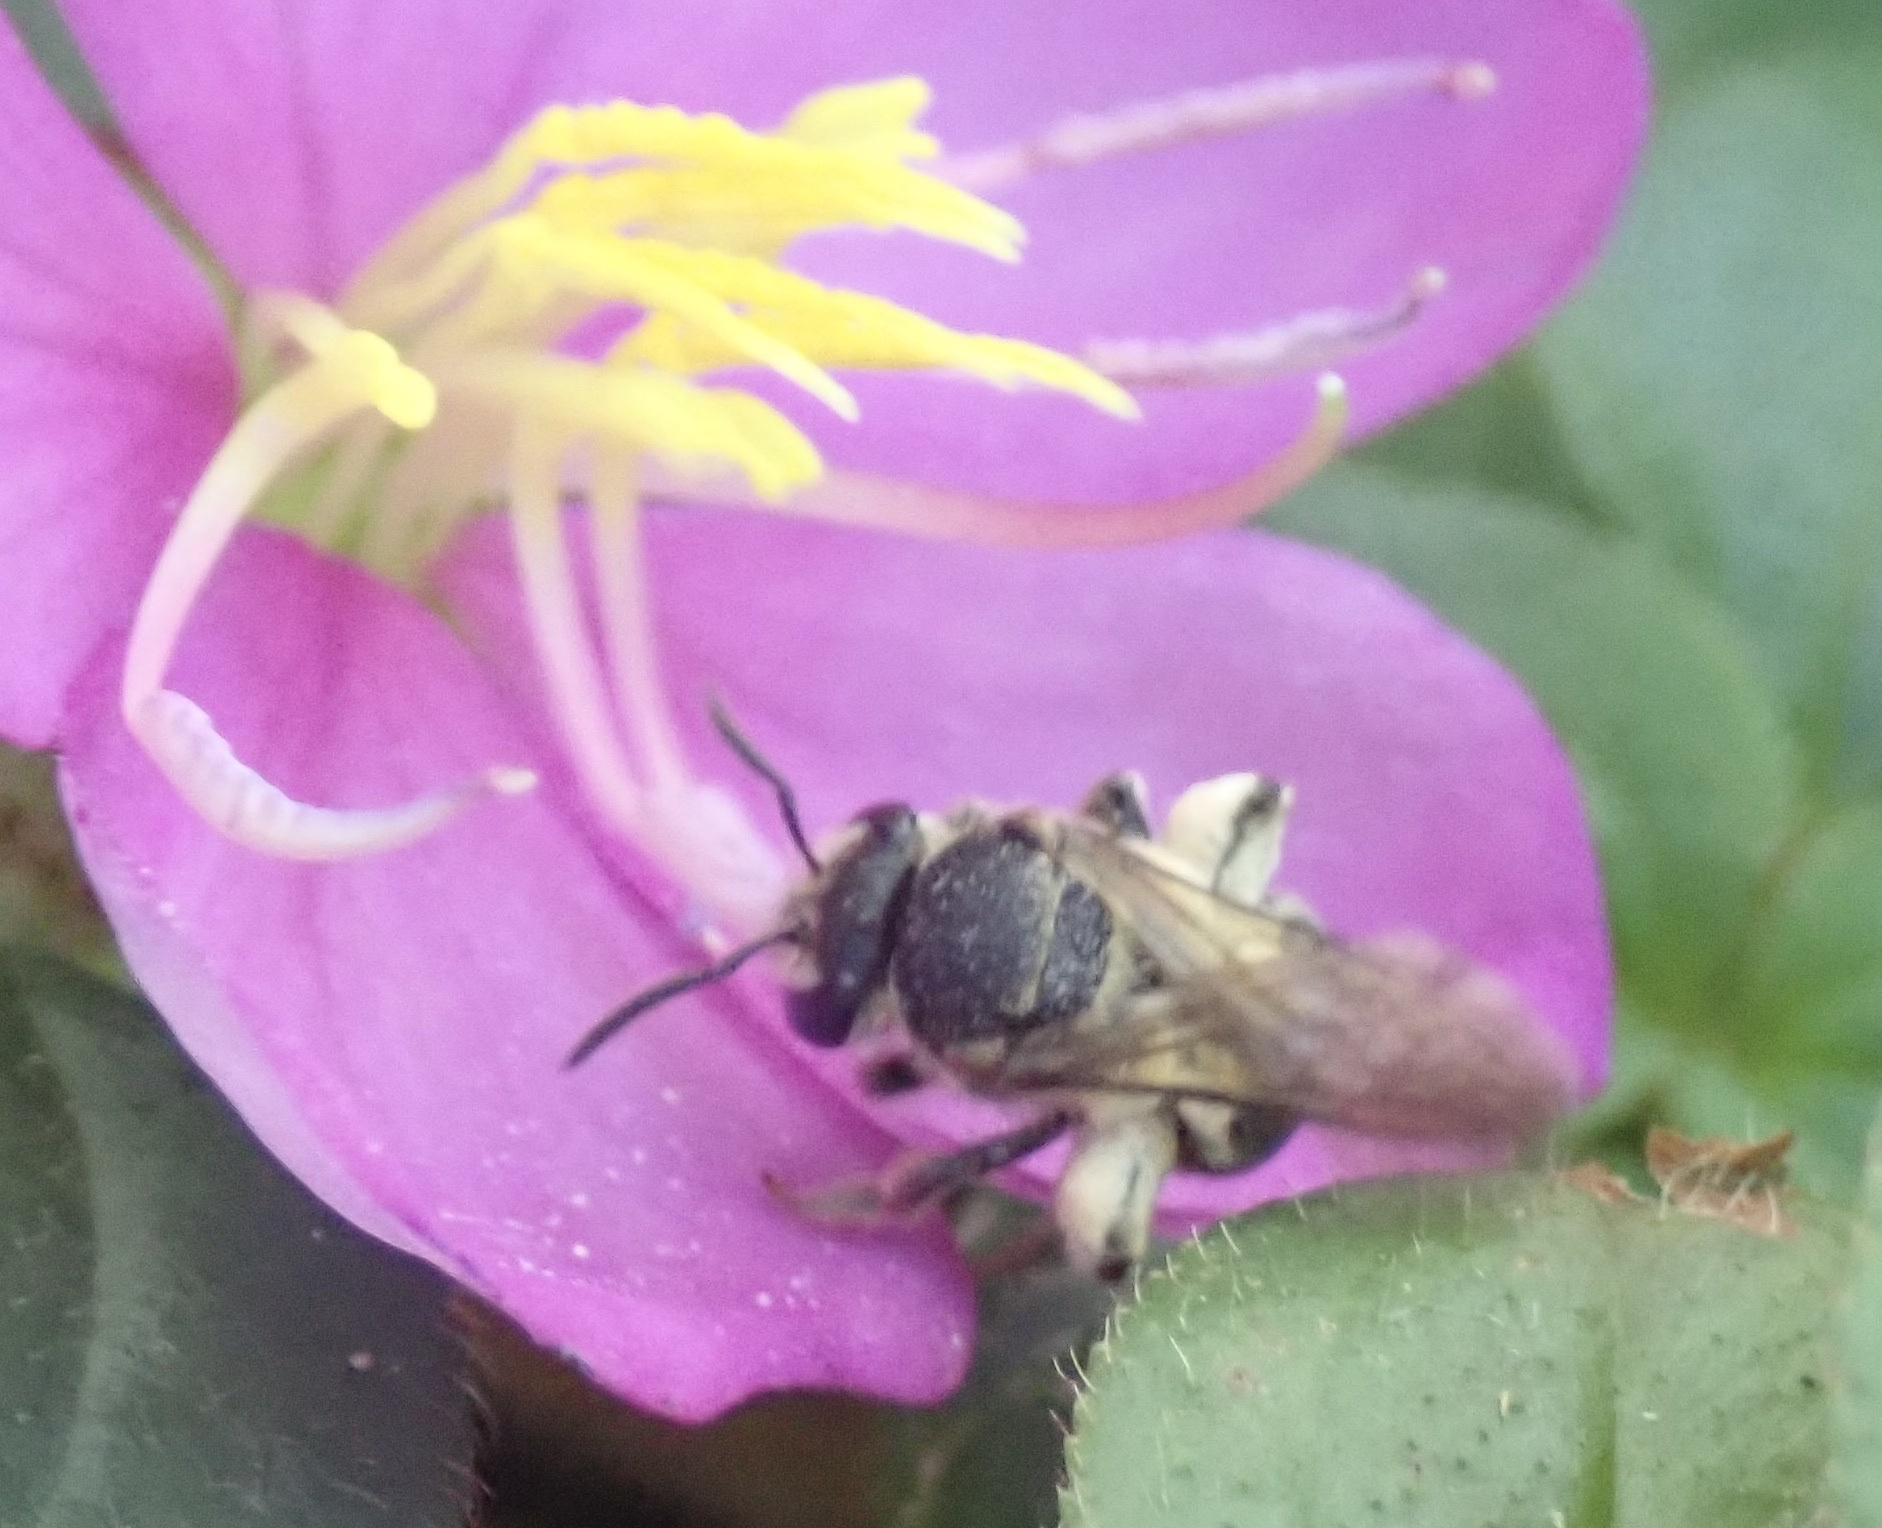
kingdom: Animalia
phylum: Arthropoda
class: Insecta
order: Hymenoptera
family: Halictidae
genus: Nomia
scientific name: Nomia strigata
